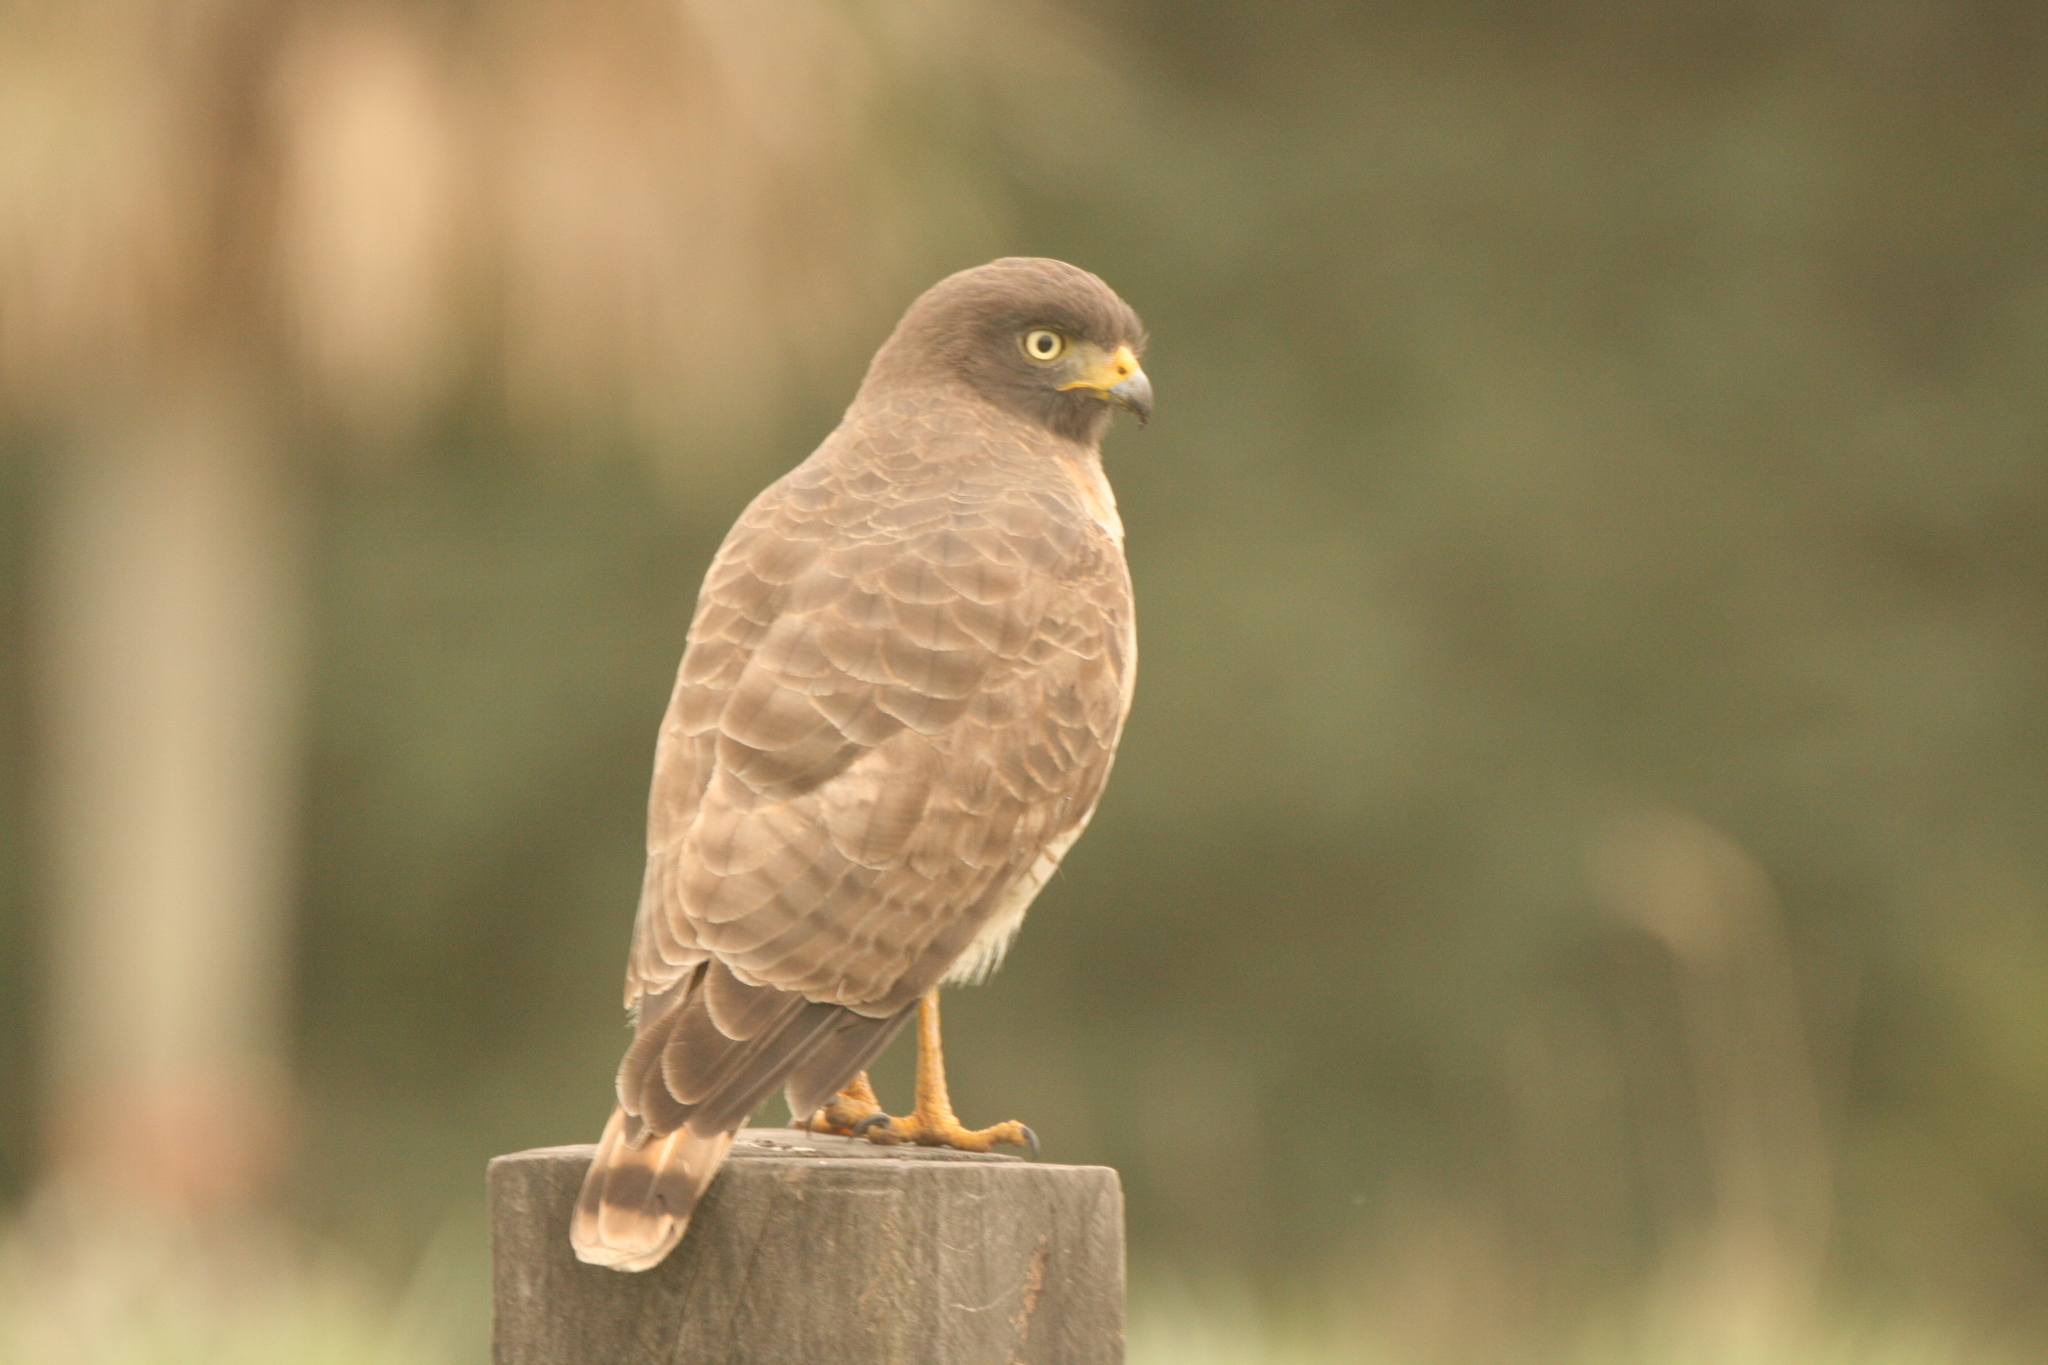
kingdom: Animalia
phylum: Chordata
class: Aves
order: Accipitriformes
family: Accipitridae
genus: Rupornis
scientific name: Rupornis magnirostris
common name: Roadside hawk
